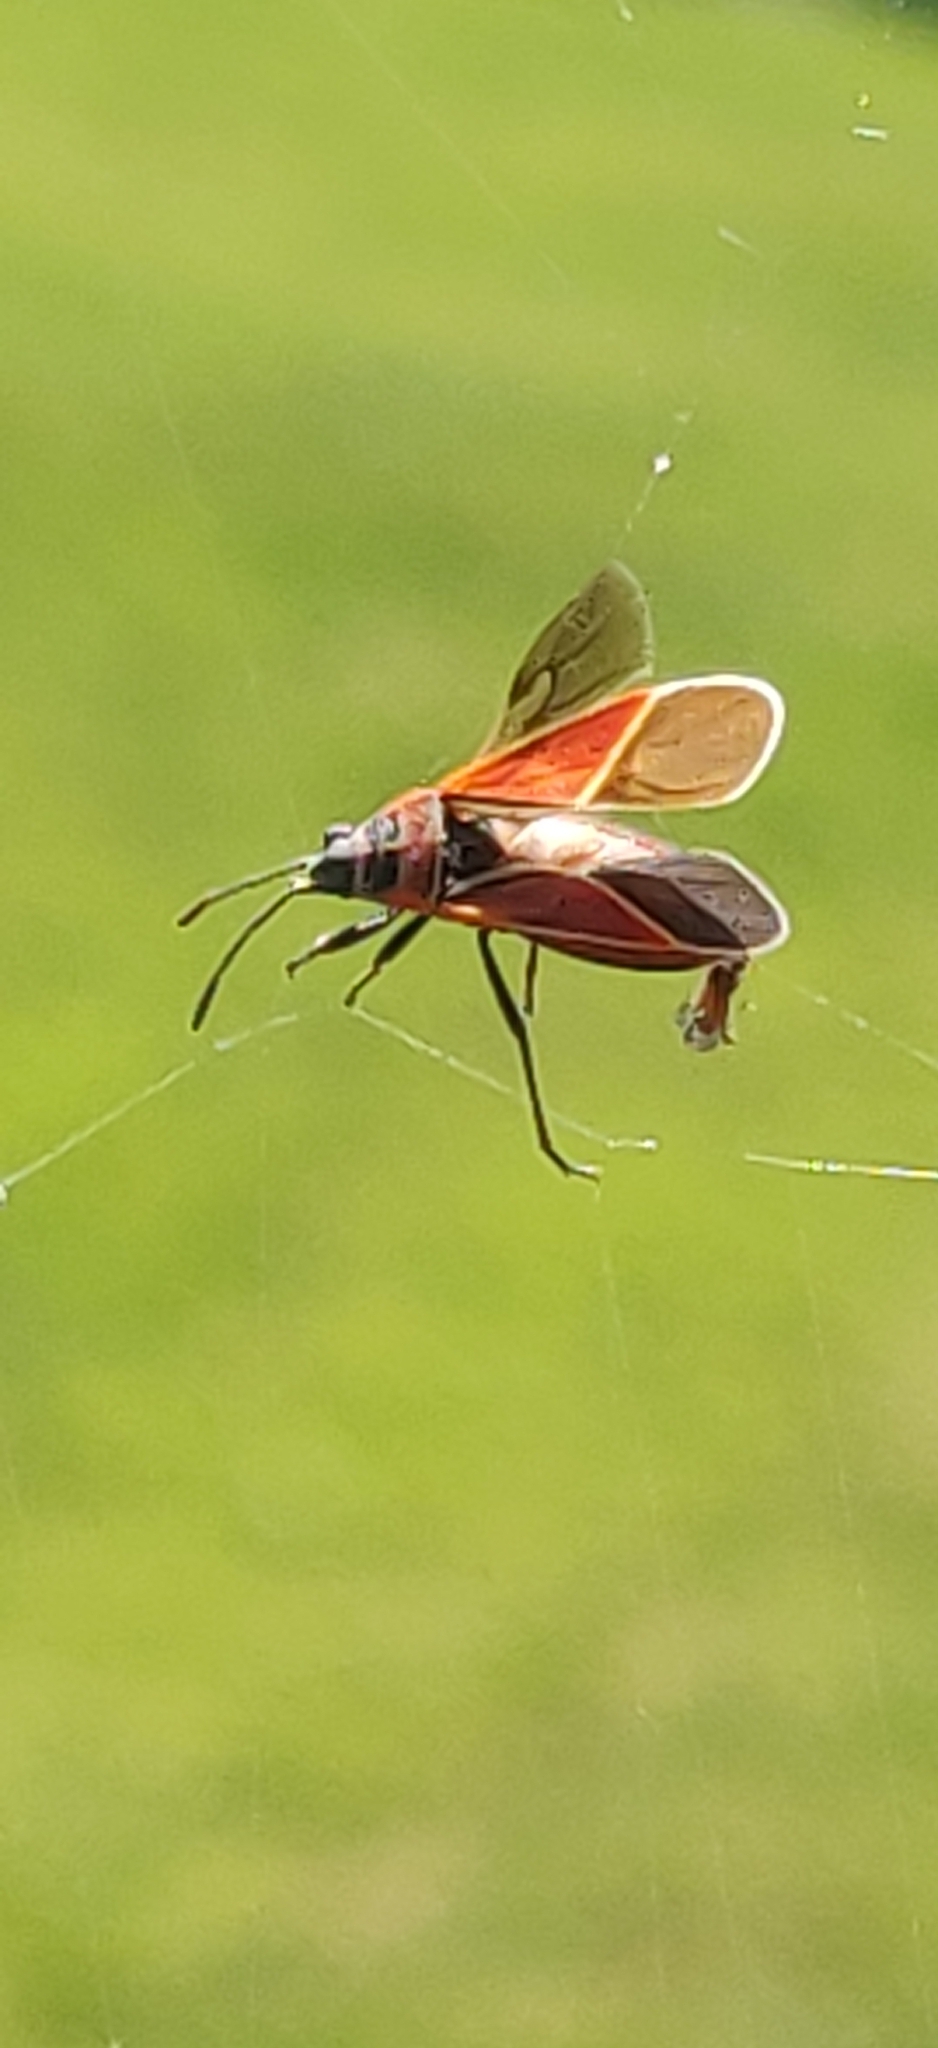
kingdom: Animalia
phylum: Arthropoda
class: Insecta
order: Hemiptera
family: Lygaeidae
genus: Neacoryphus
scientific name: Neacoryphus bicrucis
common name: Lygaeid bug
